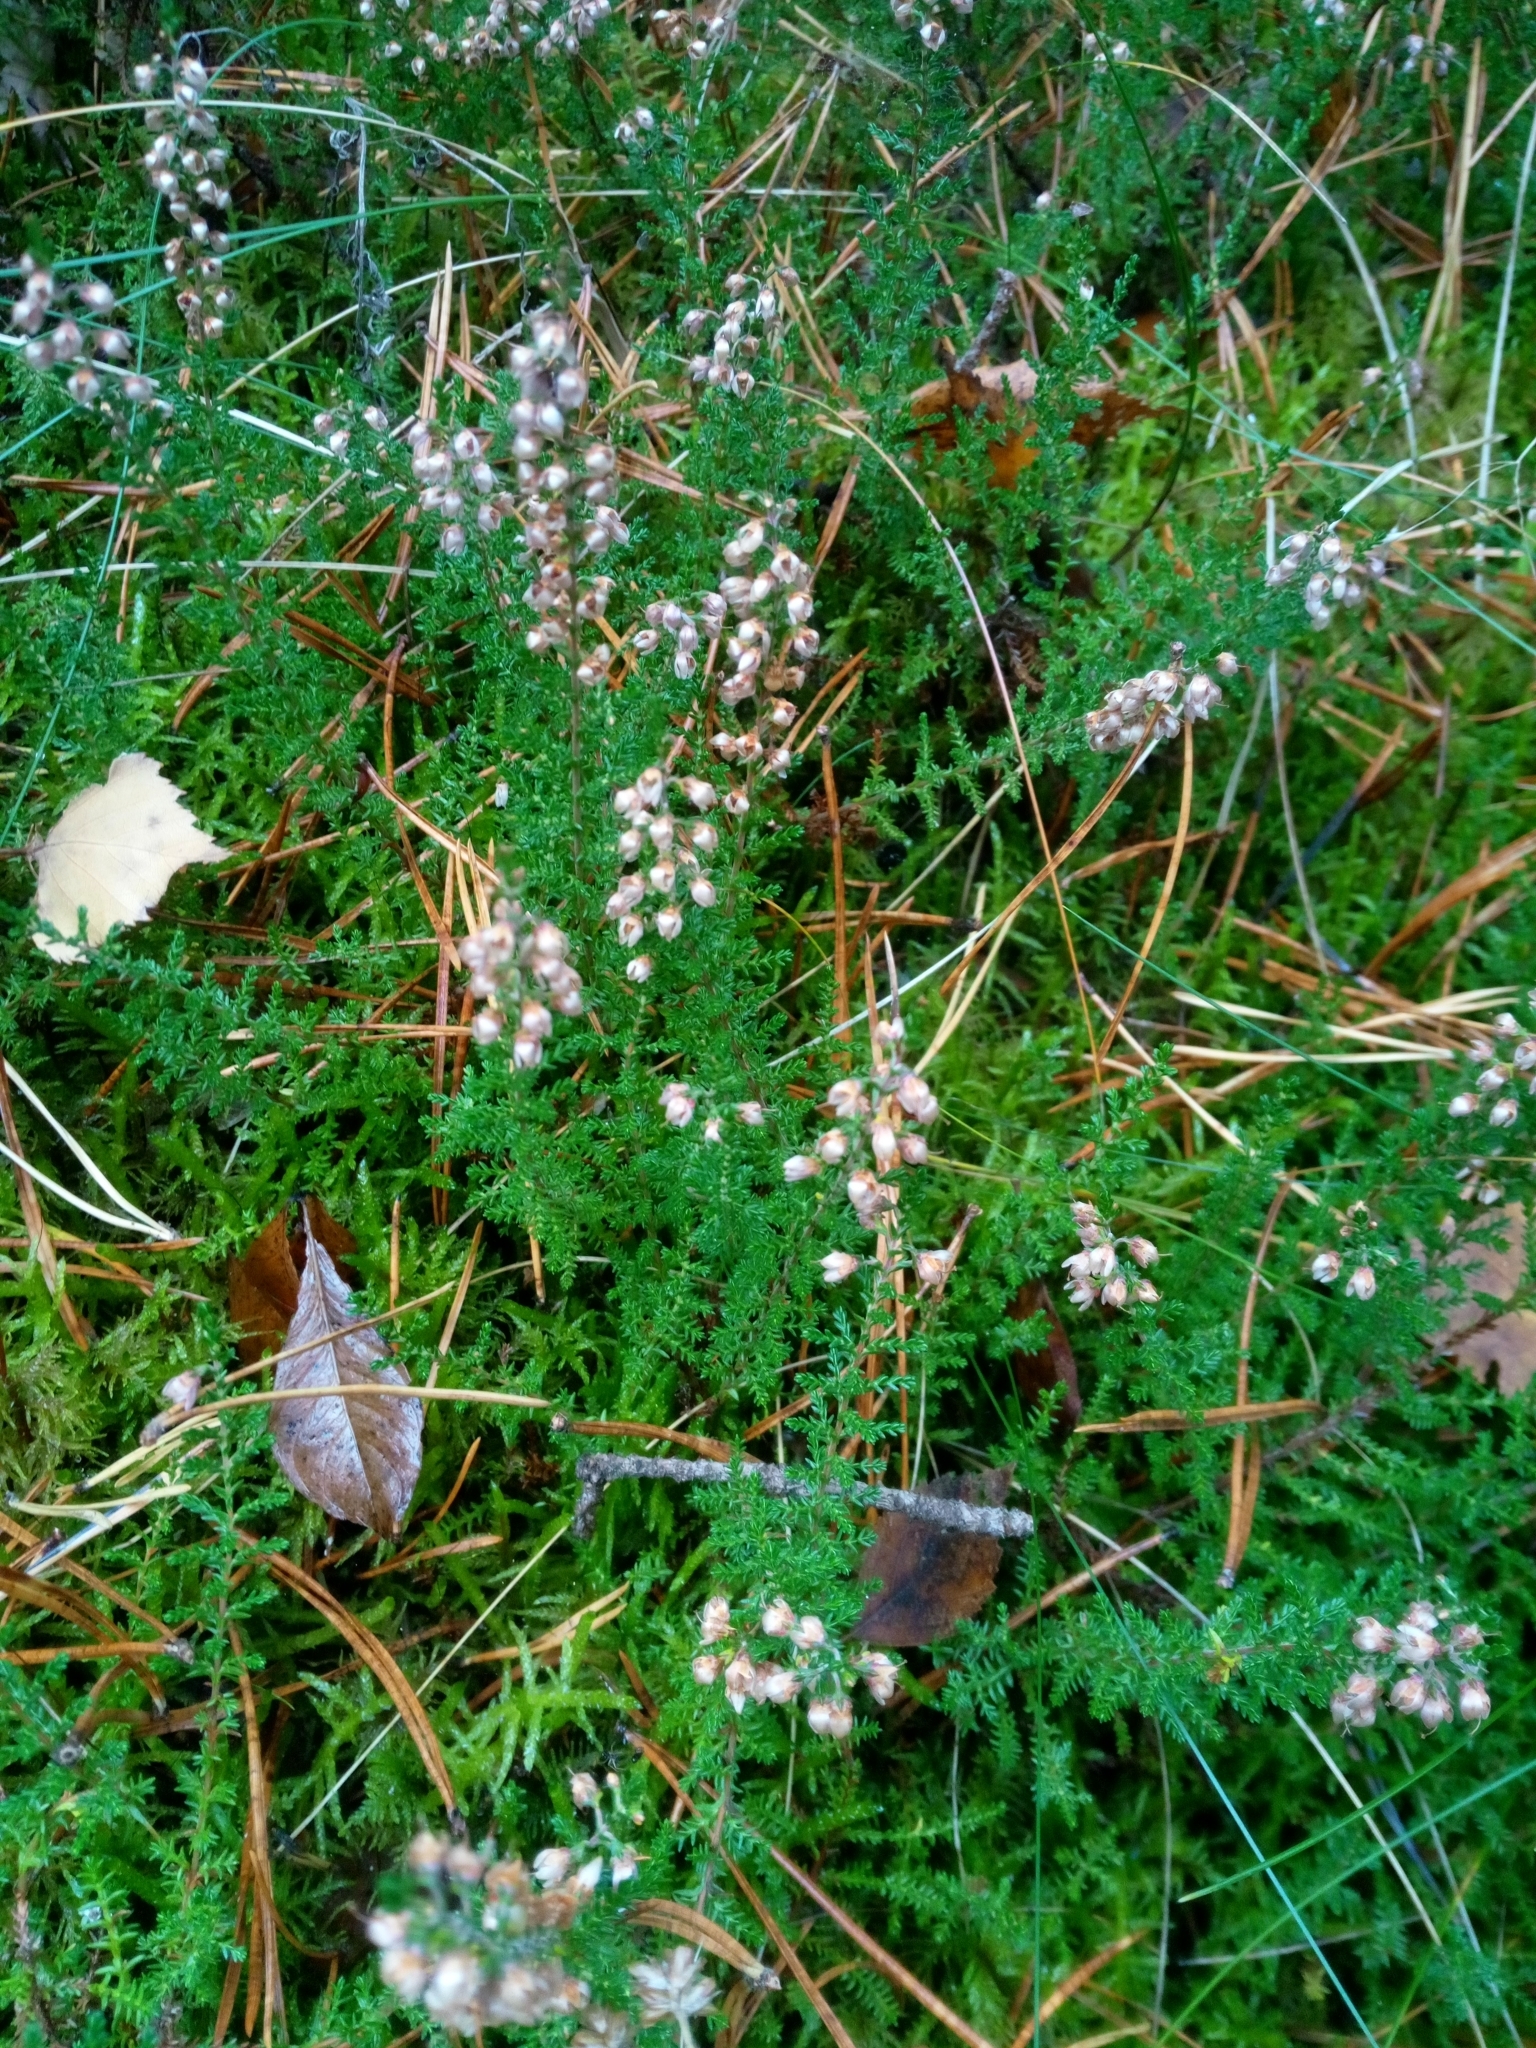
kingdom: Plantae
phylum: Tracheophyta
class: Magnoliopsida
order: Ericales
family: Ericaceae
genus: Calluna
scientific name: Calluna vulgaris
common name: Heather
